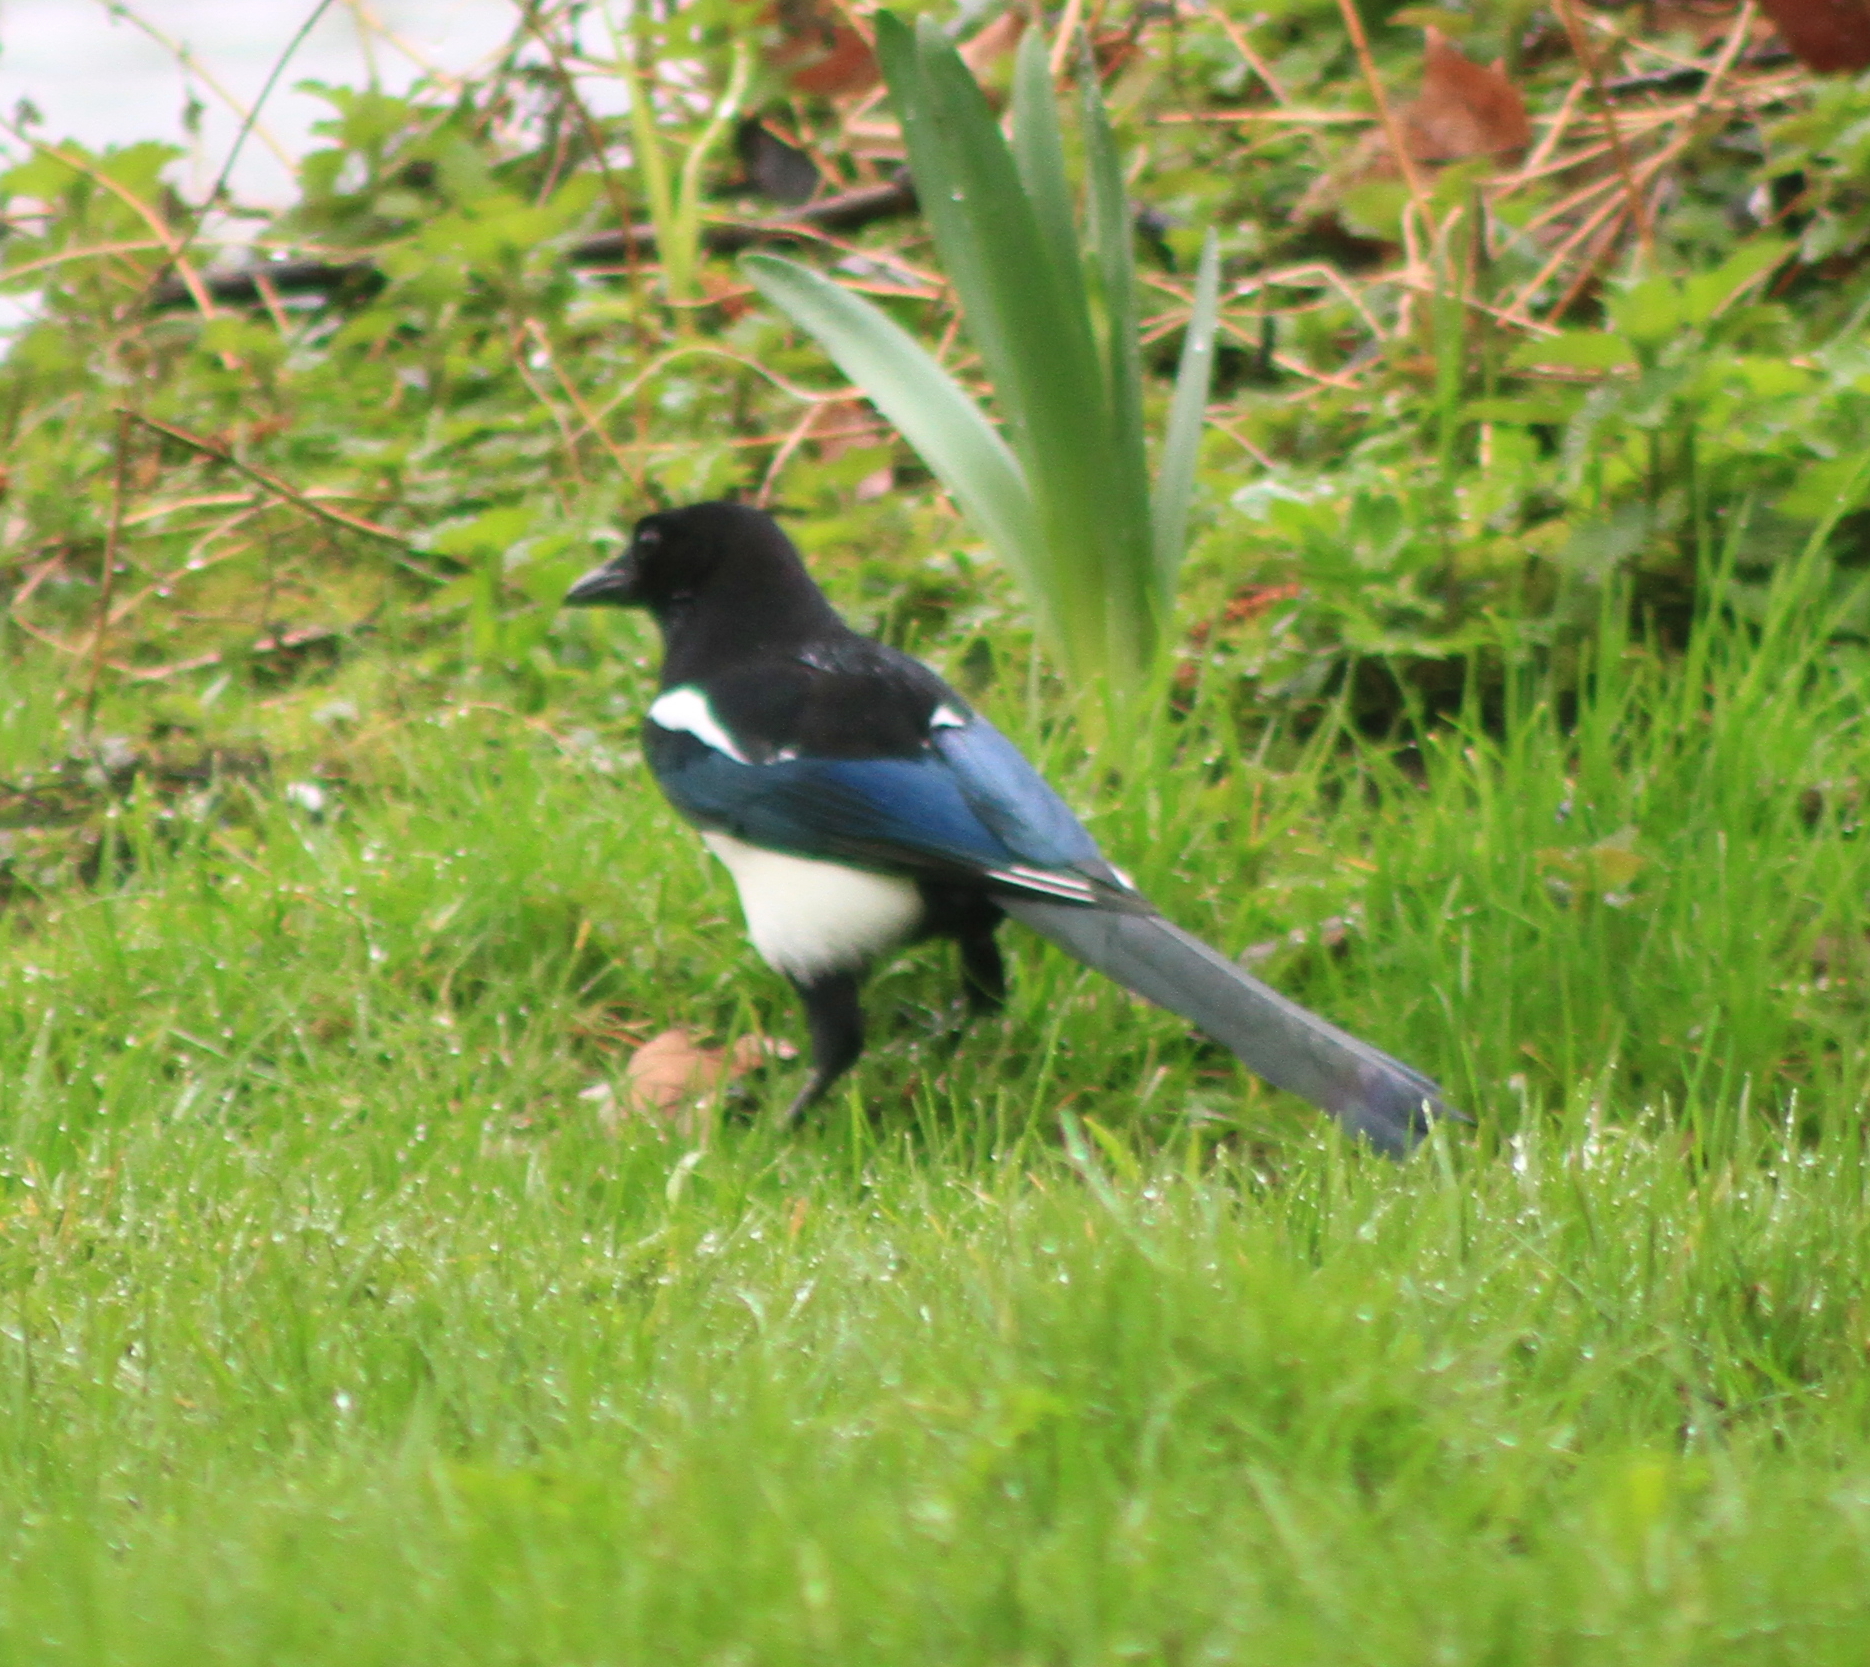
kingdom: Animalia
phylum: Chordata
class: Aves
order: Passeriformes
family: Corvidae
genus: Pica
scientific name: Pica pica
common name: Eurasian magpie
